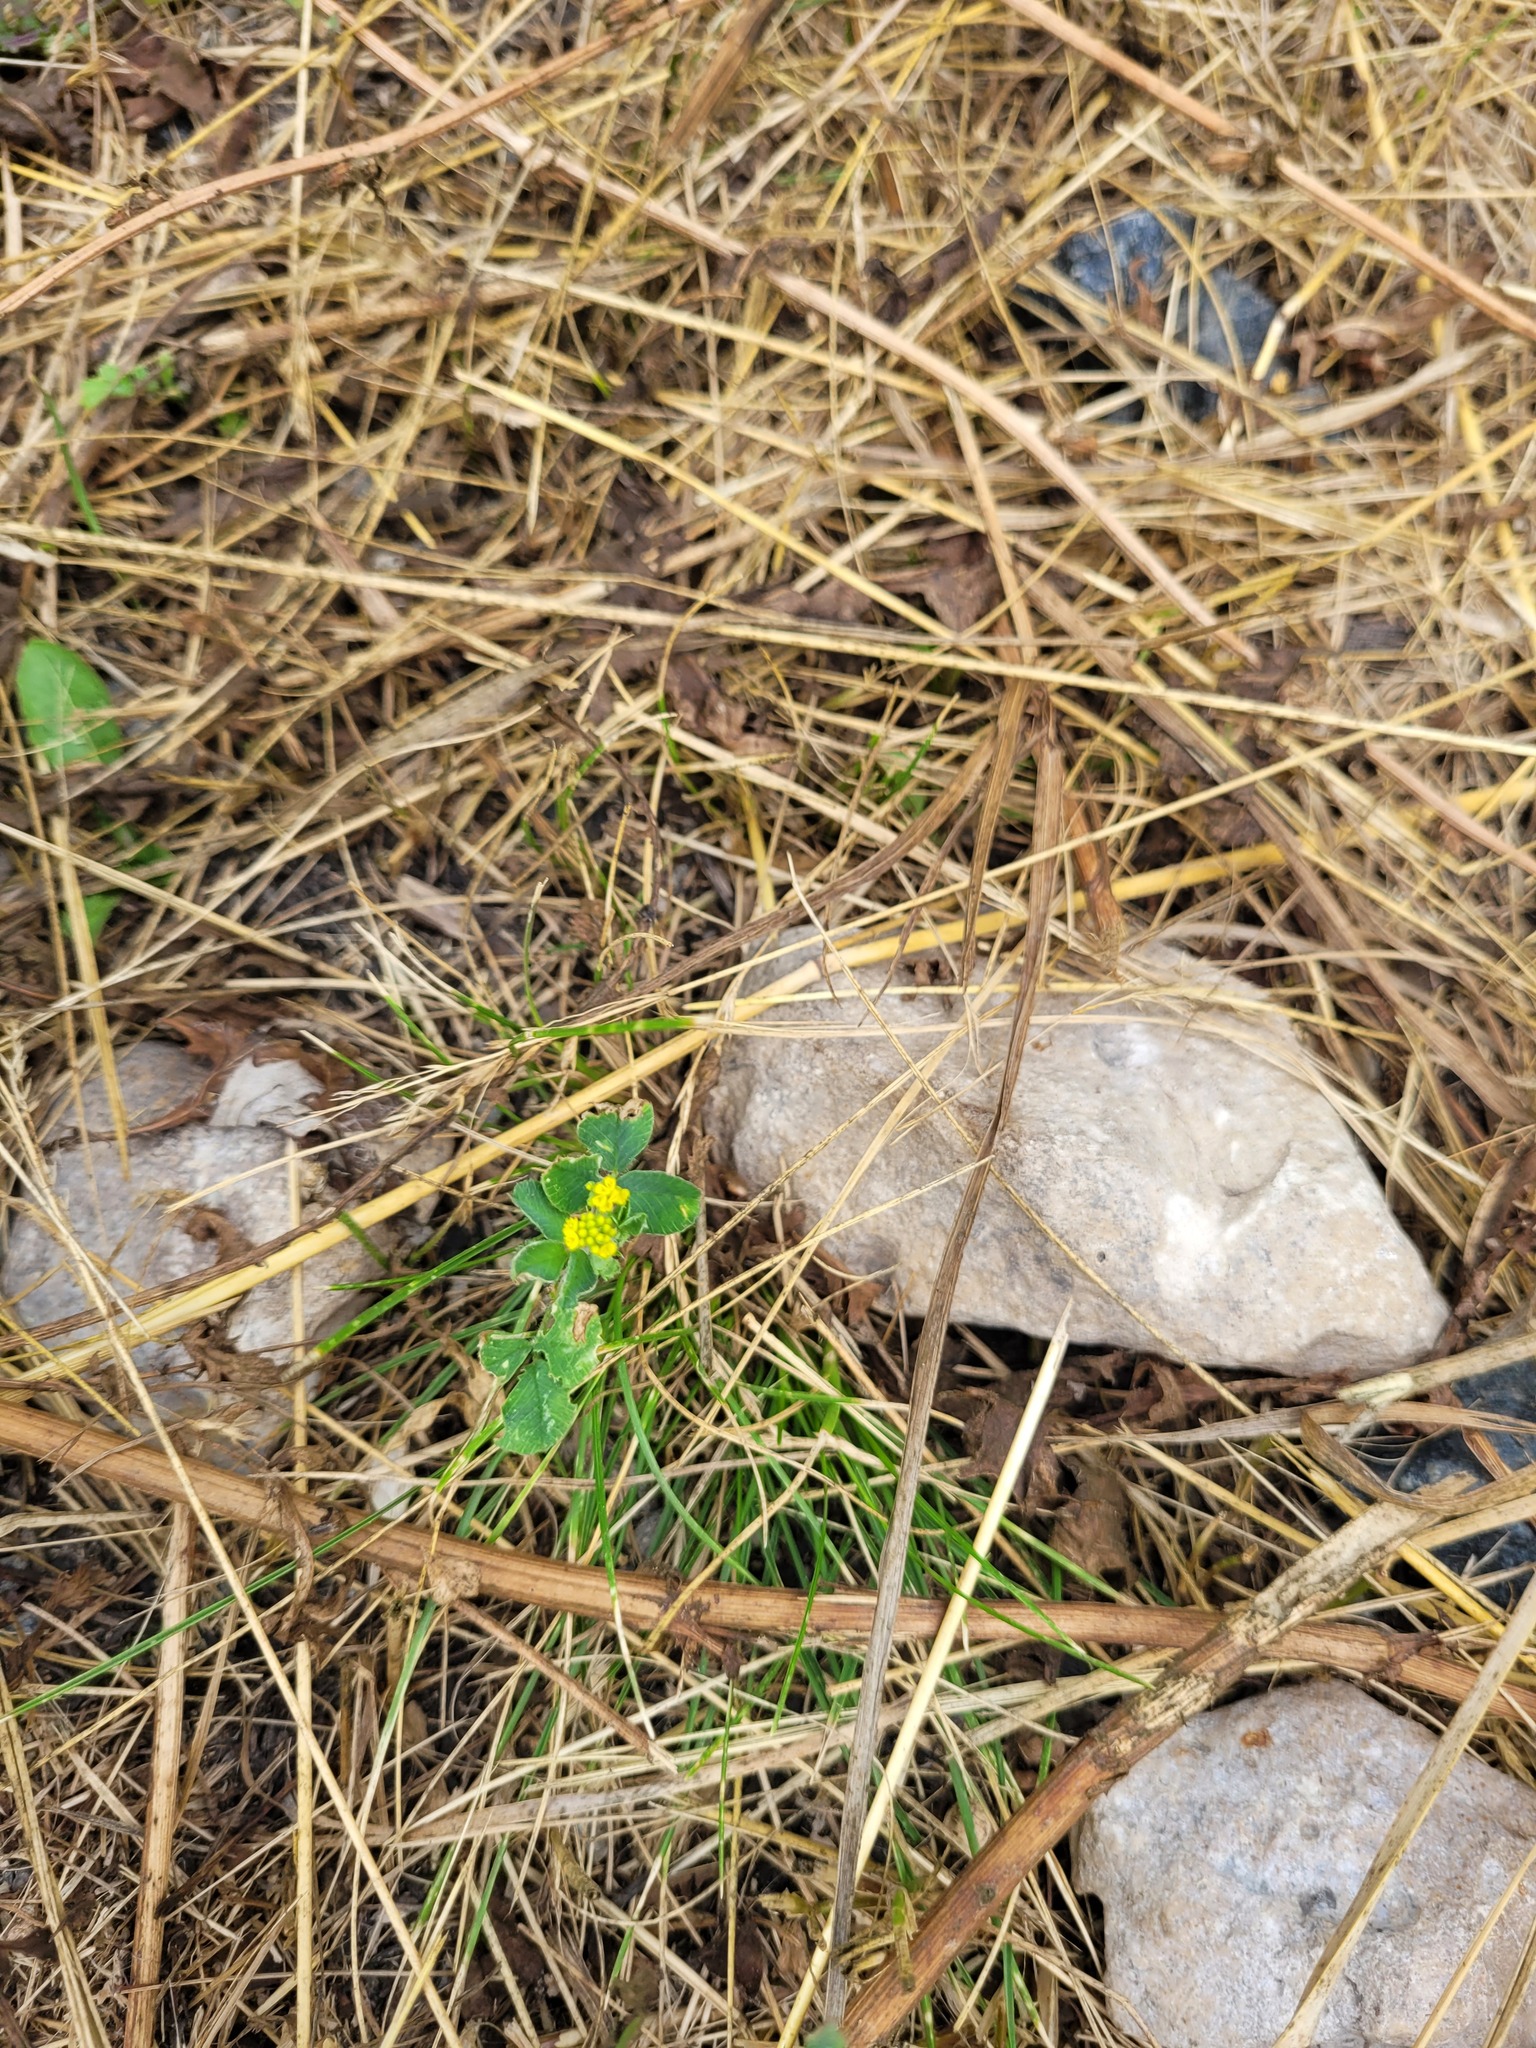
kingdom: Plantae
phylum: Tracheophyta
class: Magnoliopsida
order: Fabales
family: Fabaceae
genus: Medicago
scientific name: Medicago lupulina
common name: Black medick
